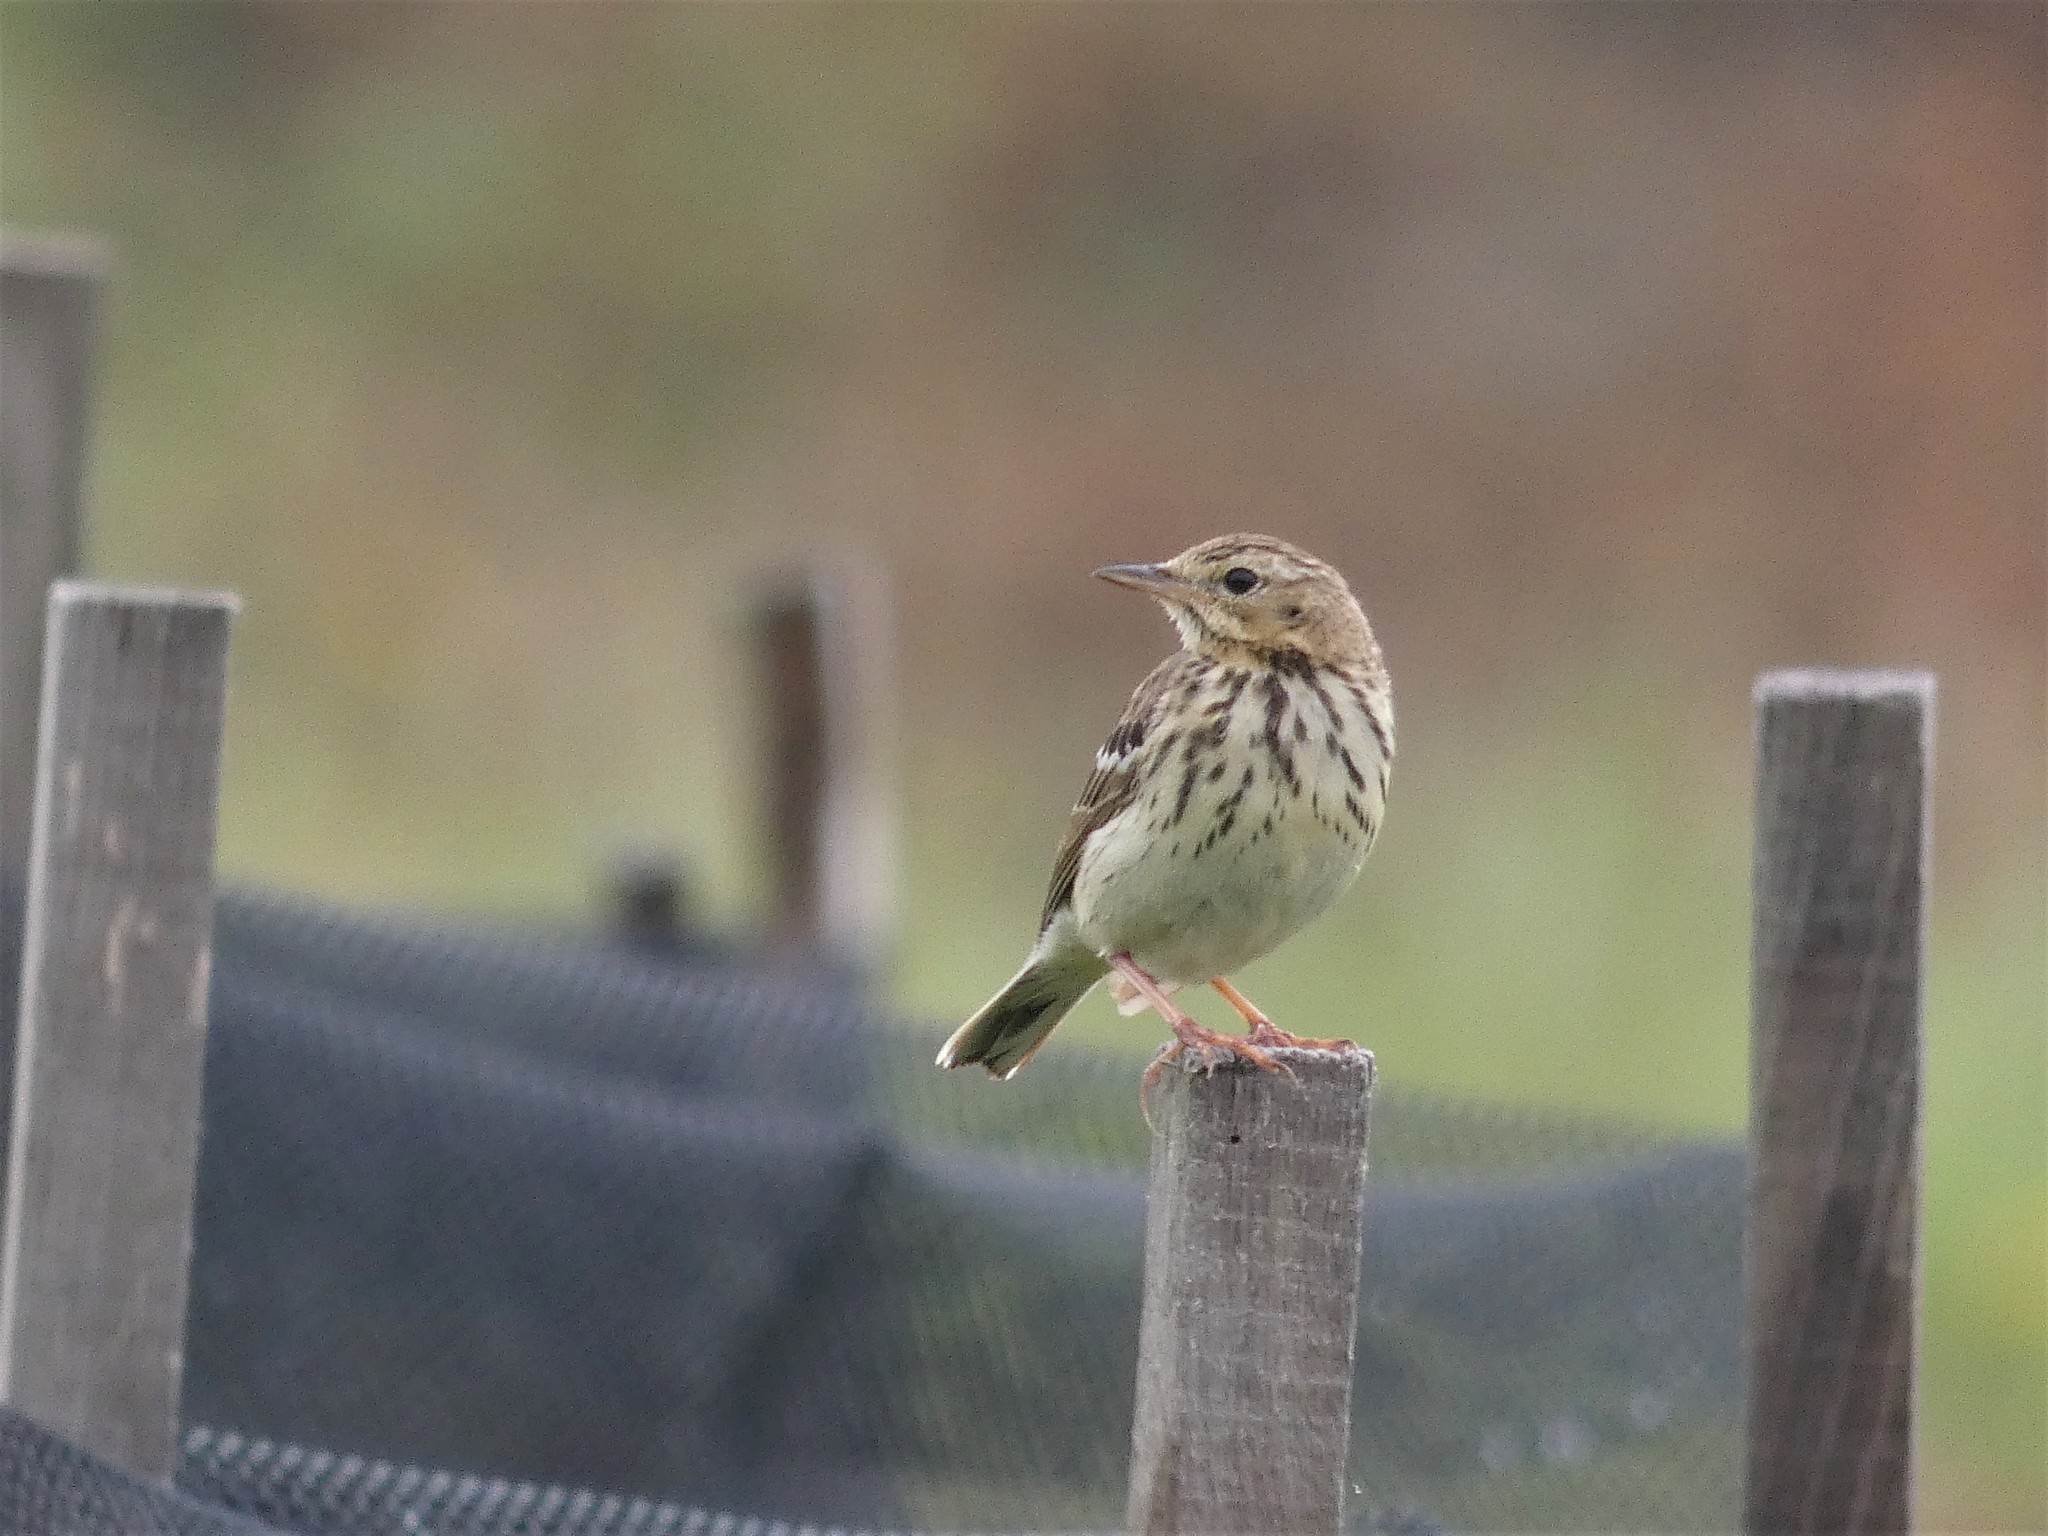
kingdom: Animalia
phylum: Chordata
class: Aves
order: Passeriformes
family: Motacillidae
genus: Anthus
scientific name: Anthus trivialis
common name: Tree pipit
